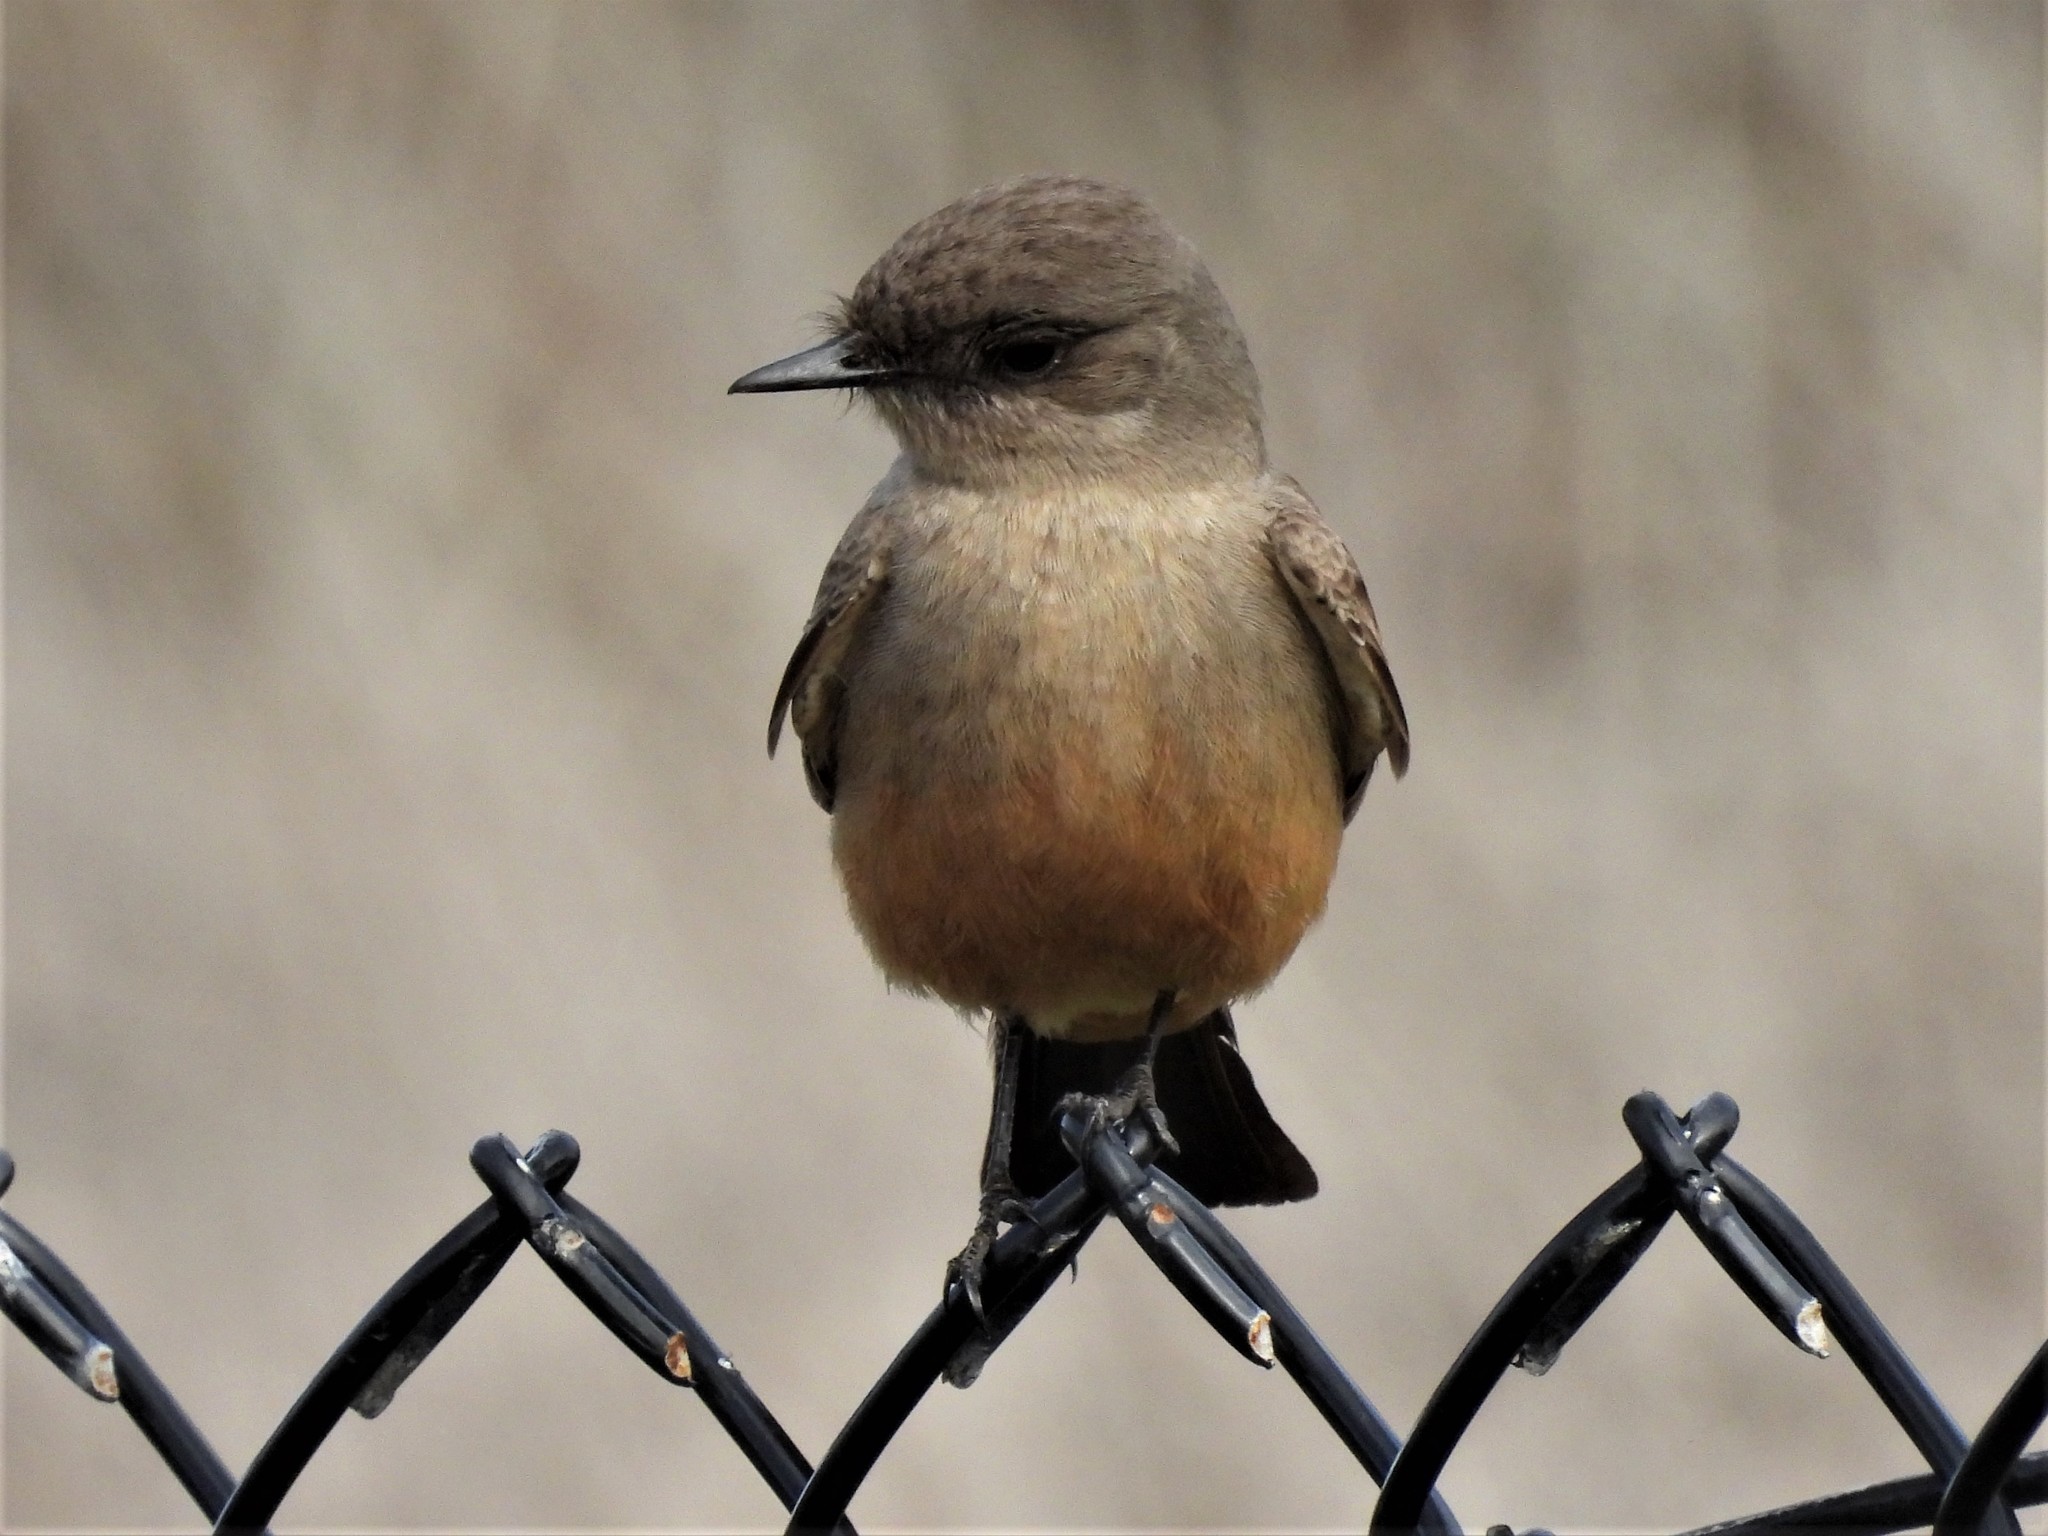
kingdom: Animalia
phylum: Chordata
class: Aves
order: Passeriformes
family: Tyrannidae
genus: Sayornis
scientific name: Sayornis saya
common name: Say's phoebe
